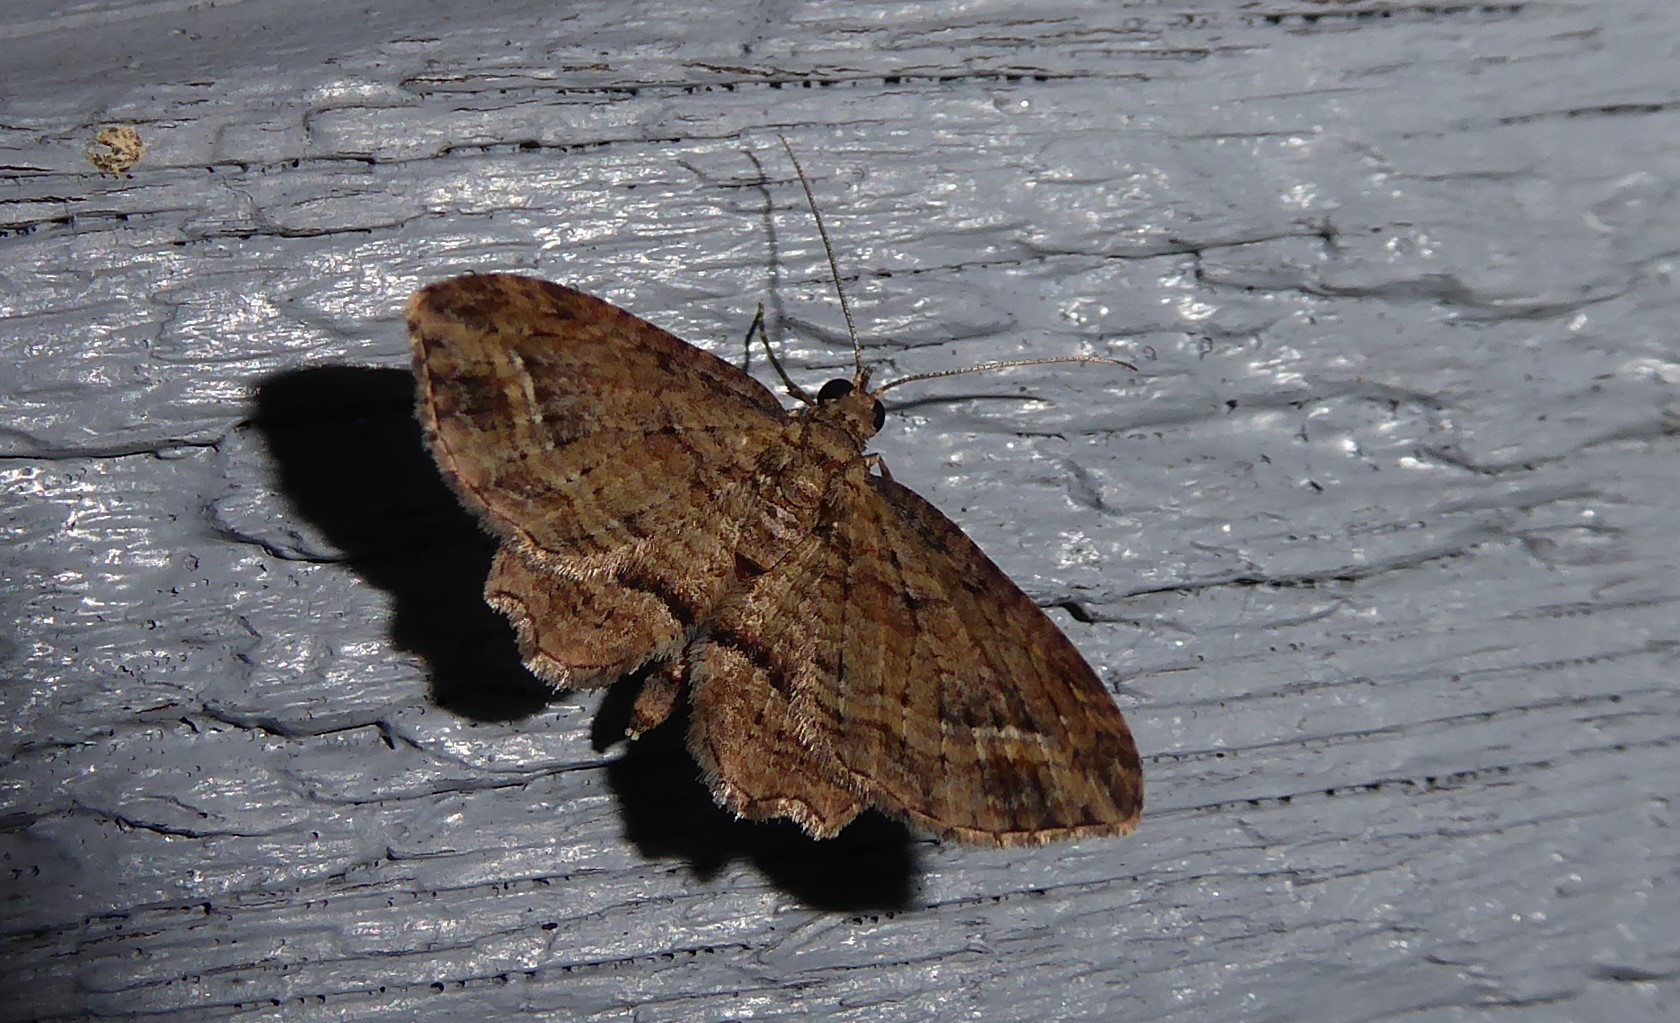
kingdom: Animalia
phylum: Arthropoda
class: Insecta
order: Lepidoptera
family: Geometridae
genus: Chloroclystis
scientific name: Chloroclystis filata
